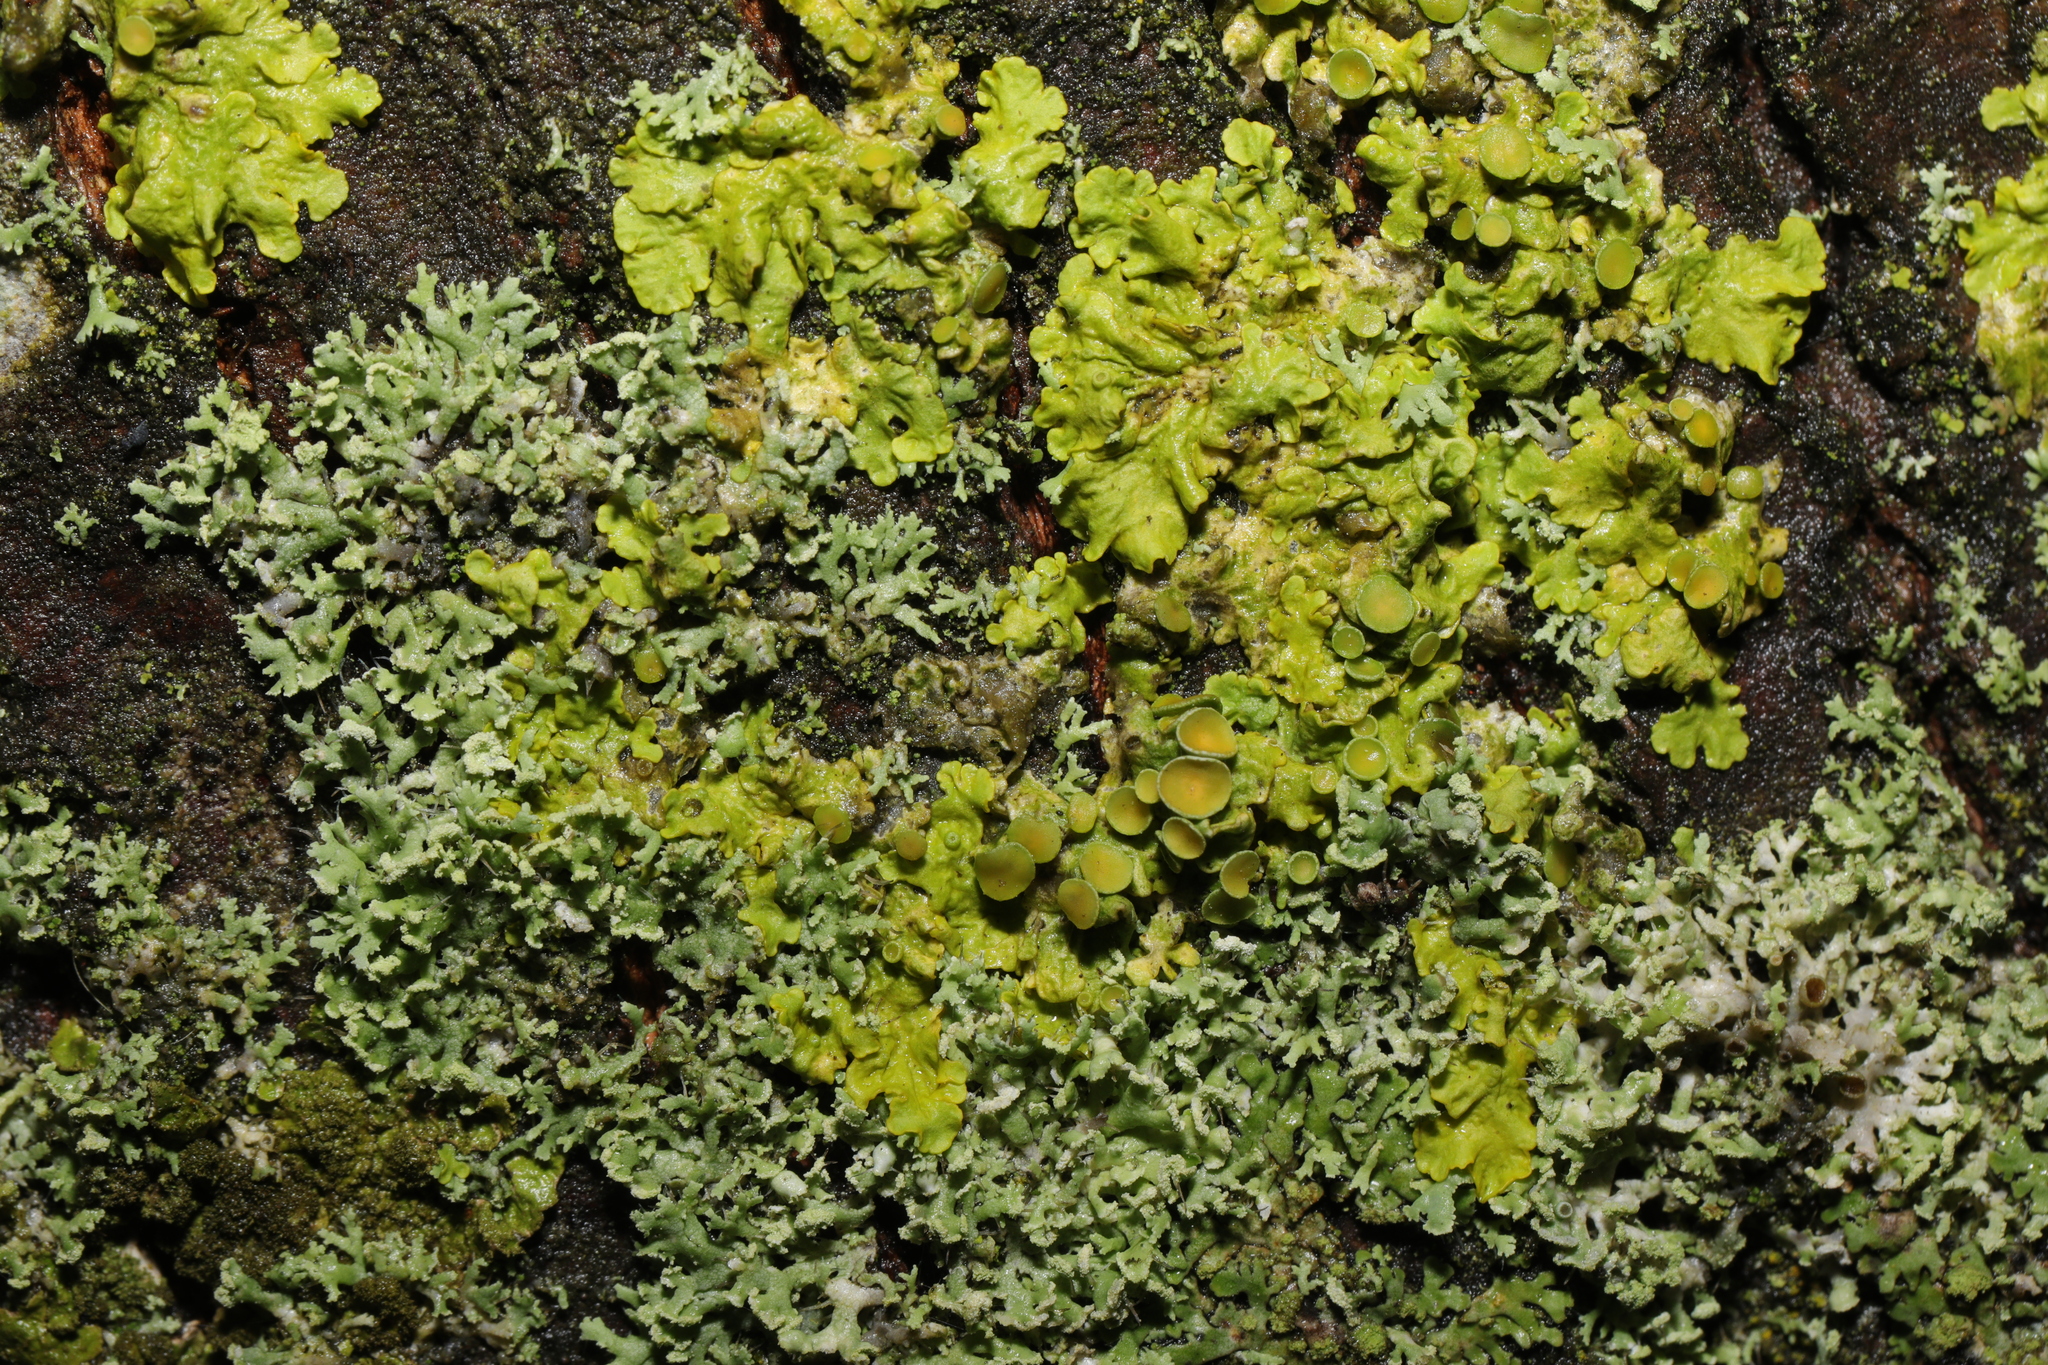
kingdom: Fungi
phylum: Ascomycota
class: Lecanoromycetes
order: Teloschistales
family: Teloschistaceae
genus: Xanthoria
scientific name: Xanthoria parietina
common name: Common orange lichen
